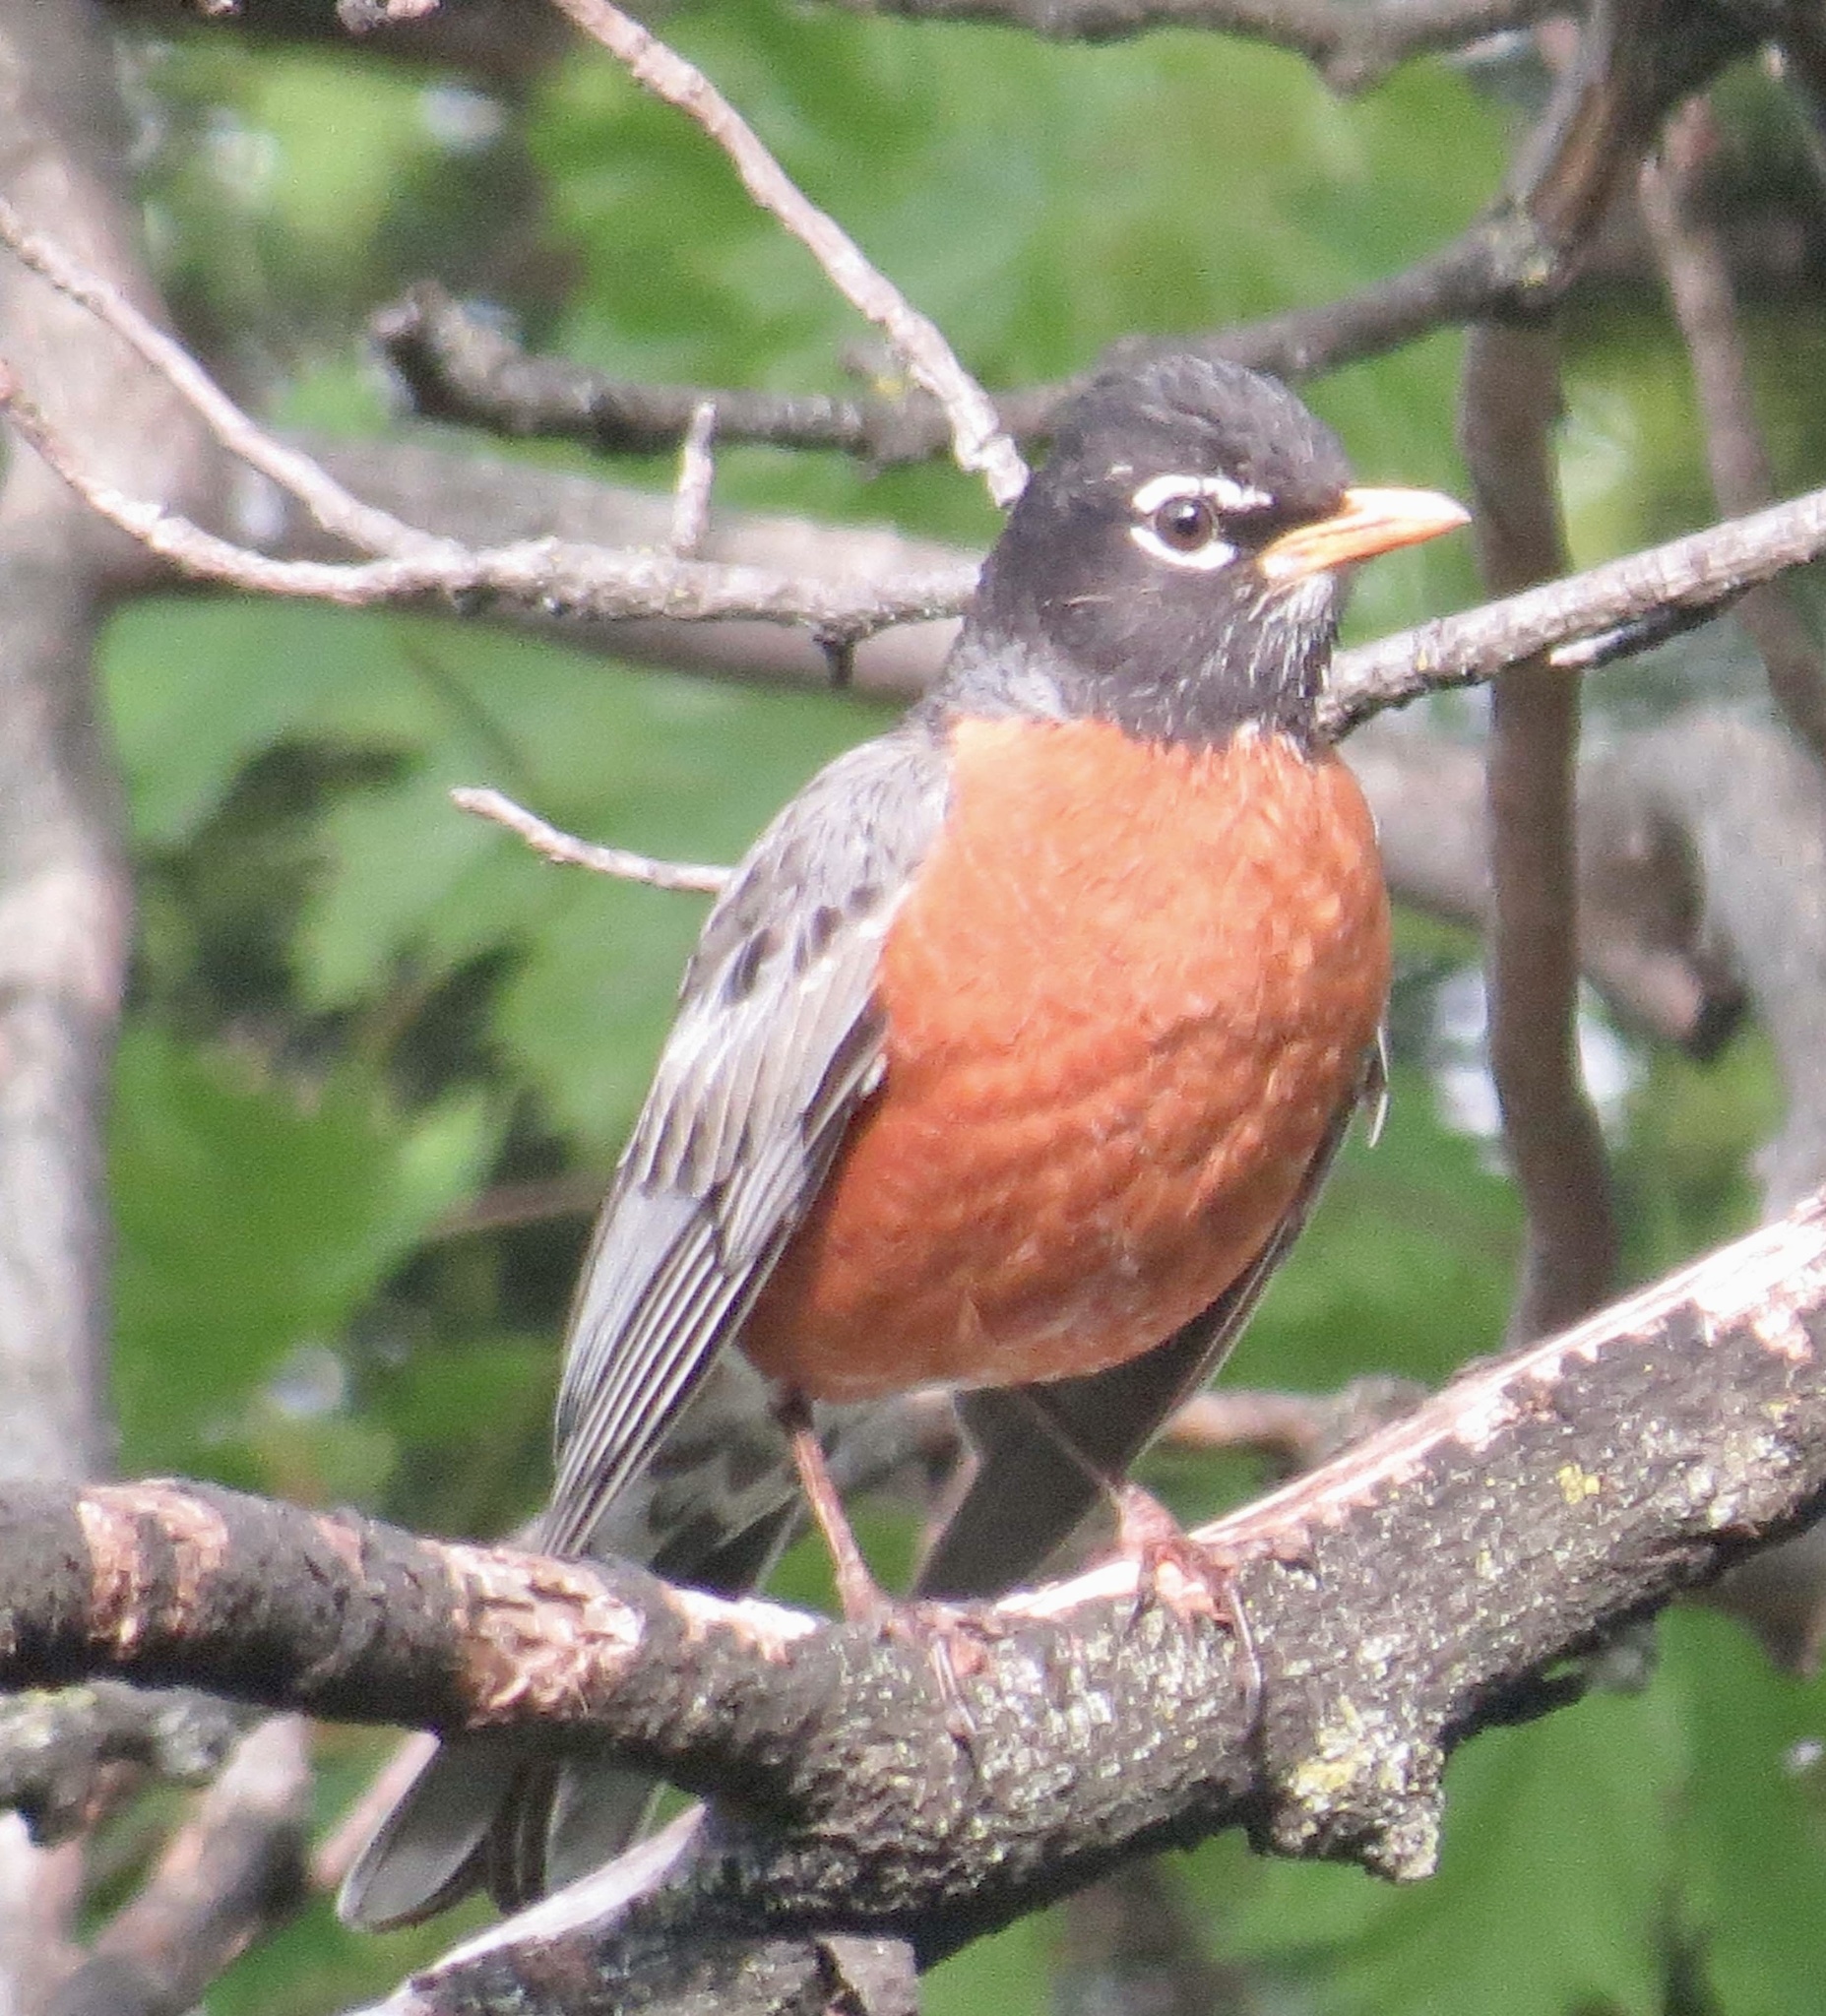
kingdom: Animalia
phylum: Chordata
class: Aves
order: Passeriformes
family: Turdidae
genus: Turdus
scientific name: Turdus migratorius
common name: American robin
